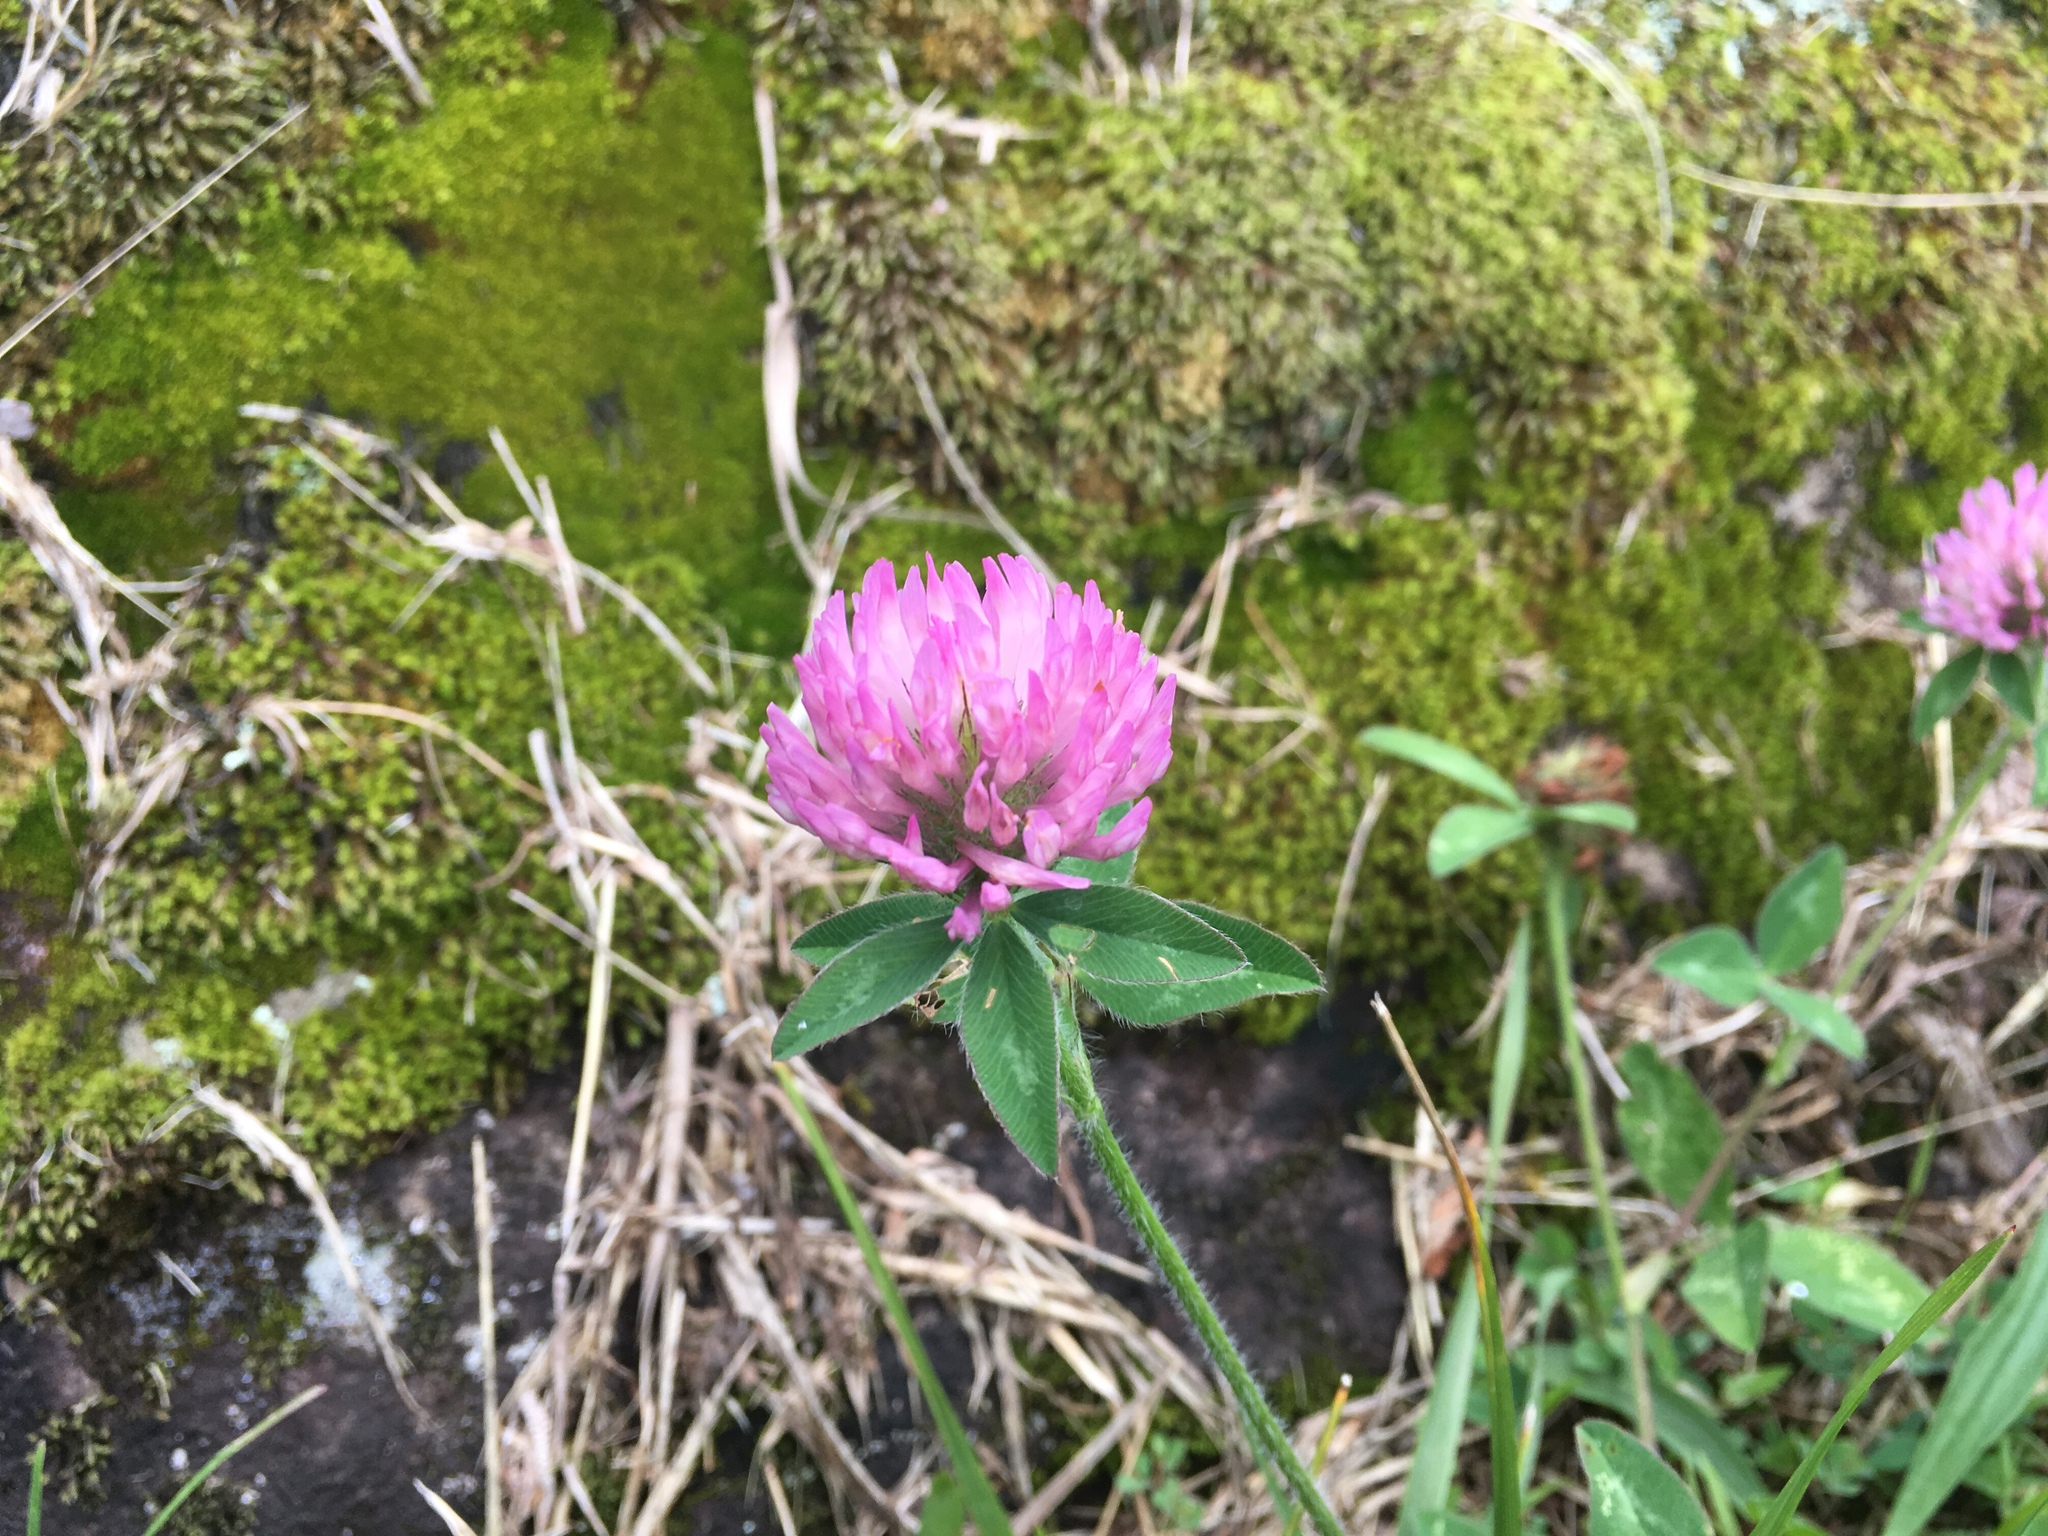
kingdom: Plantae
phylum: Tracheophyta
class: Magnoliopsida
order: Fabales
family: Fabaceae
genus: Trifolium
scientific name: Trifolium pratense
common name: Red clover
